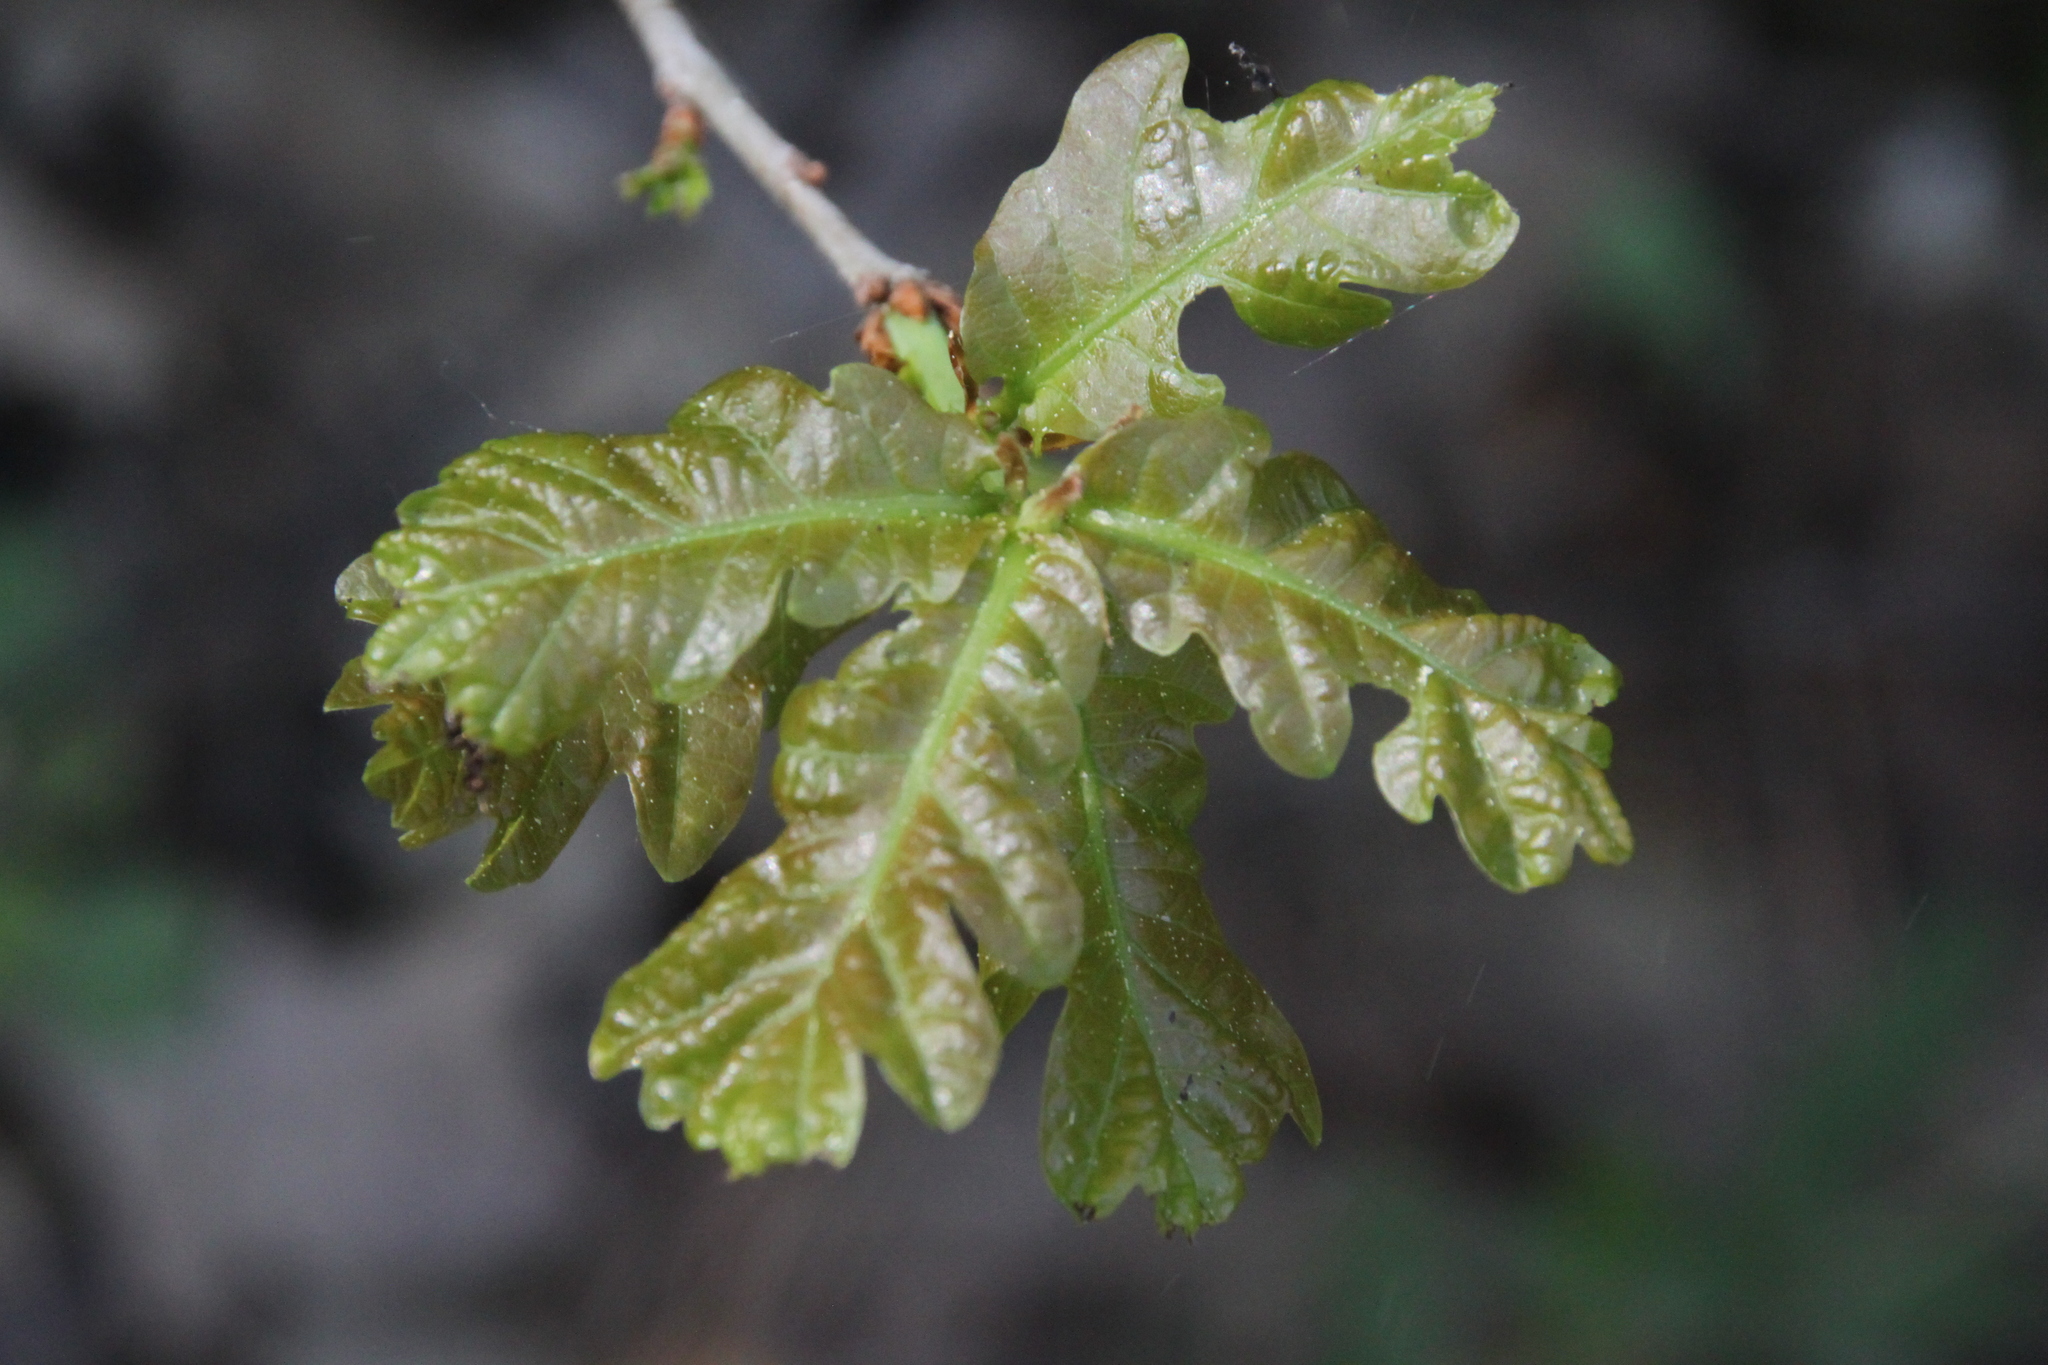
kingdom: Plantae
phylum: Tracheophyta
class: Magnoliopsida
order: Fagales
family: Fagaceae
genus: Quercus
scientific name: Quercus robur
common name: Pedunculate oak
